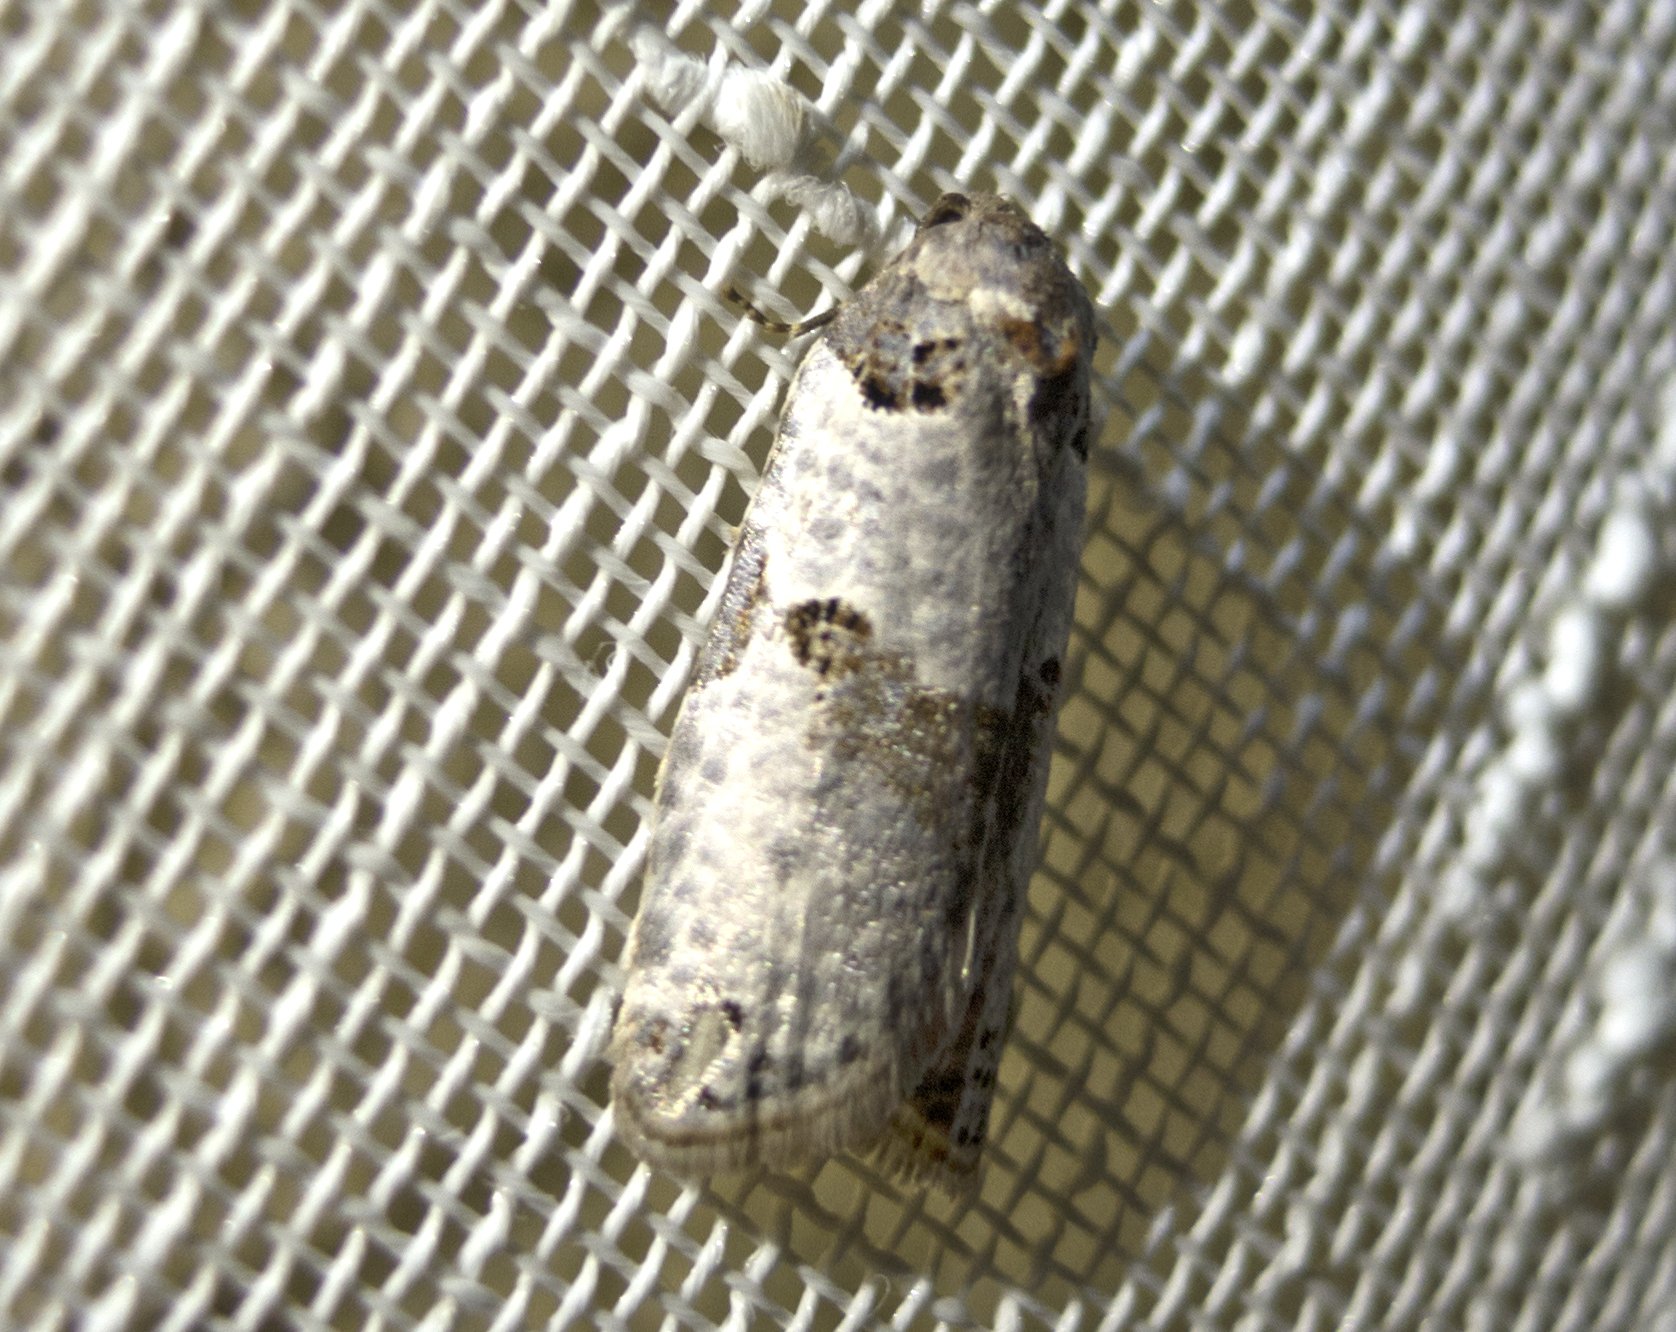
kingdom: Animalia
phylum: Arthropoda
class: Insecta
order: Lepidoptera
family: Tortricidae
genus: Pseudeulia
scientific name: Pseudeulia asinana
